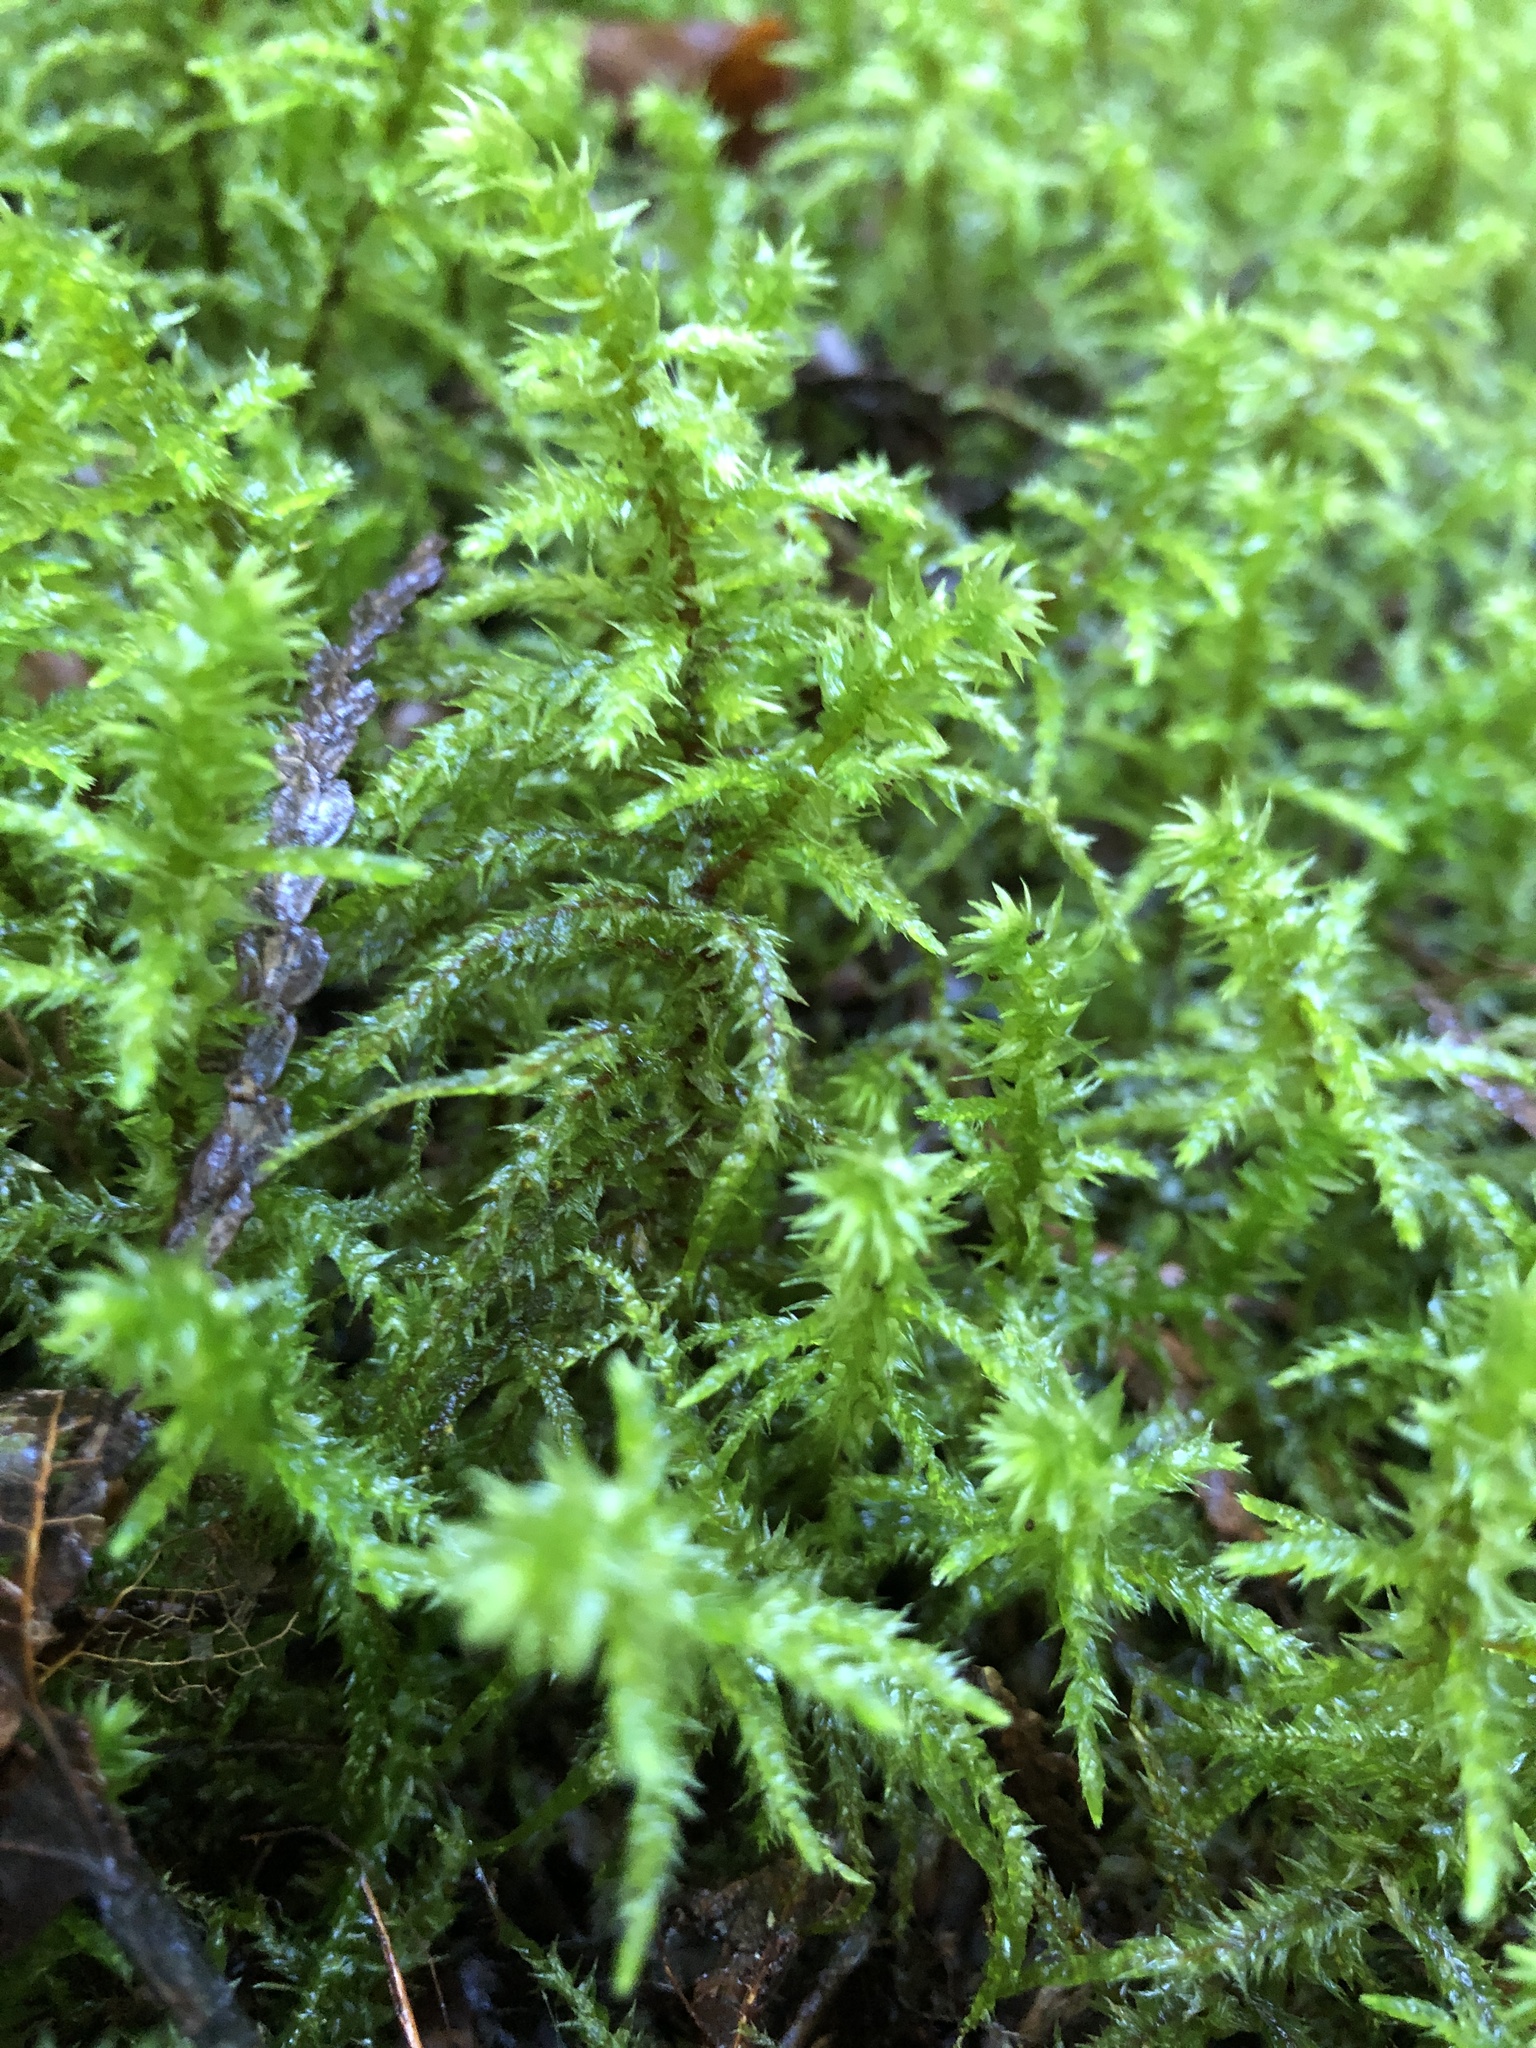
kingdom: Plantae
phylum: Bryophyta
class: Bryopsida
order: Hypnales
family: Hylocomiaceae
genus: Hylocomiadelphus
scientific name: Hylocomiadelphus triquetrus
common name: Rough goose neck moss
